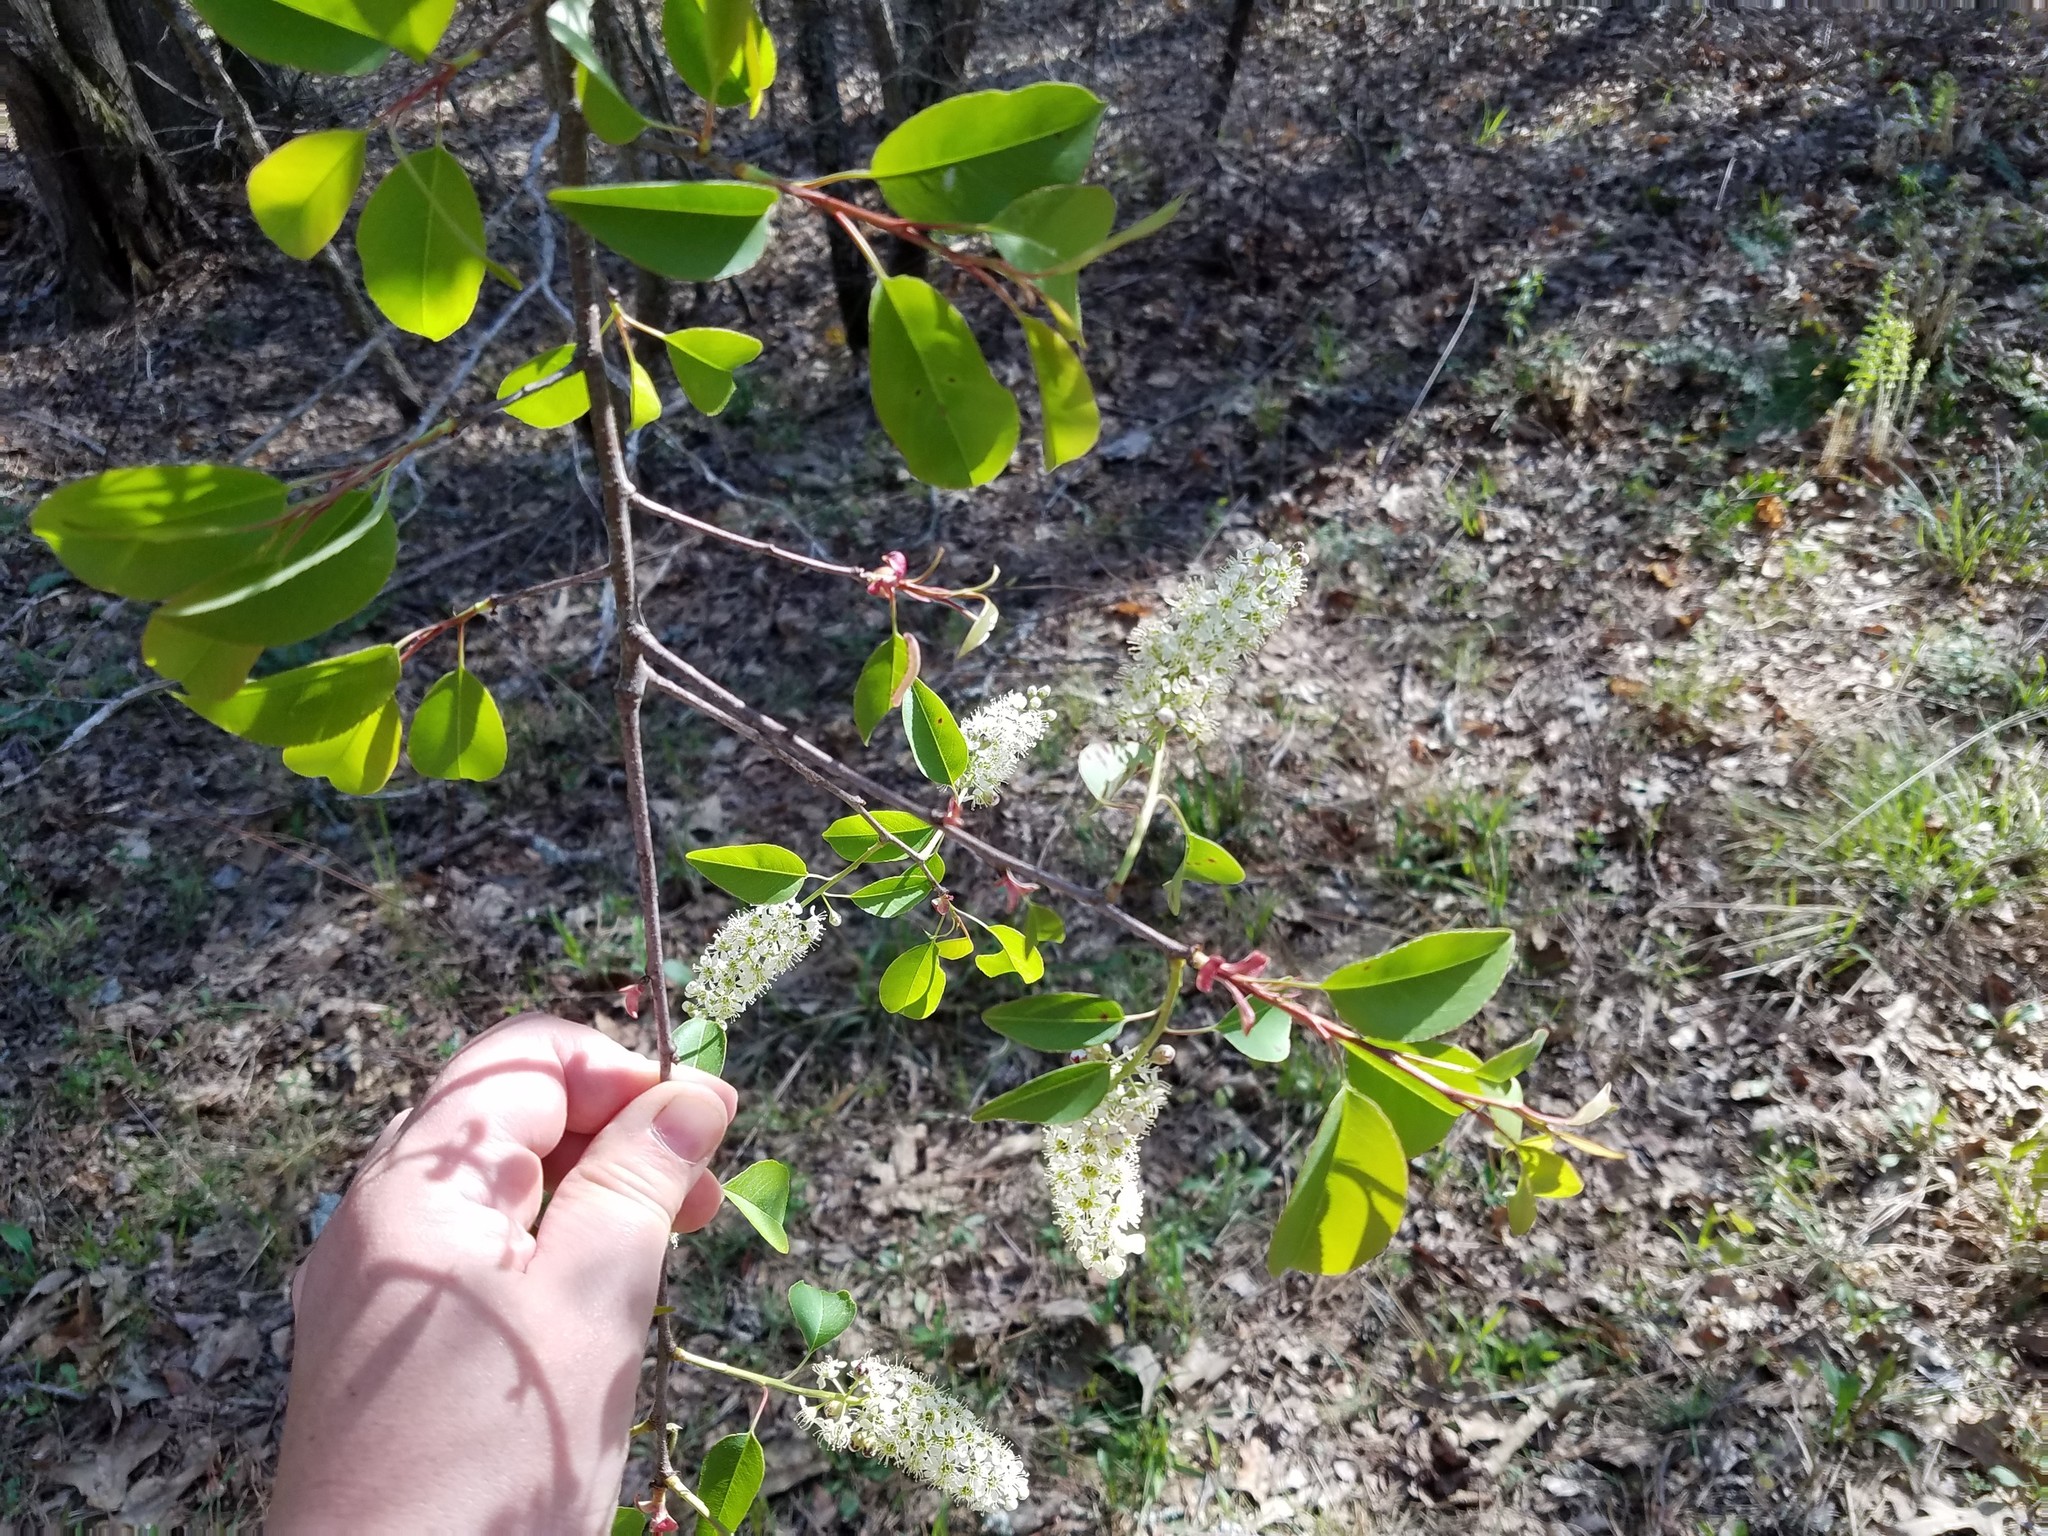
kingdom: Plantae
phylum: Tracheophyta
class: Magnoliopsida
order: Rosales
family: Rosaceae
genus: Prunus
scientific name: Prunus serotina
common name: Black cherry
